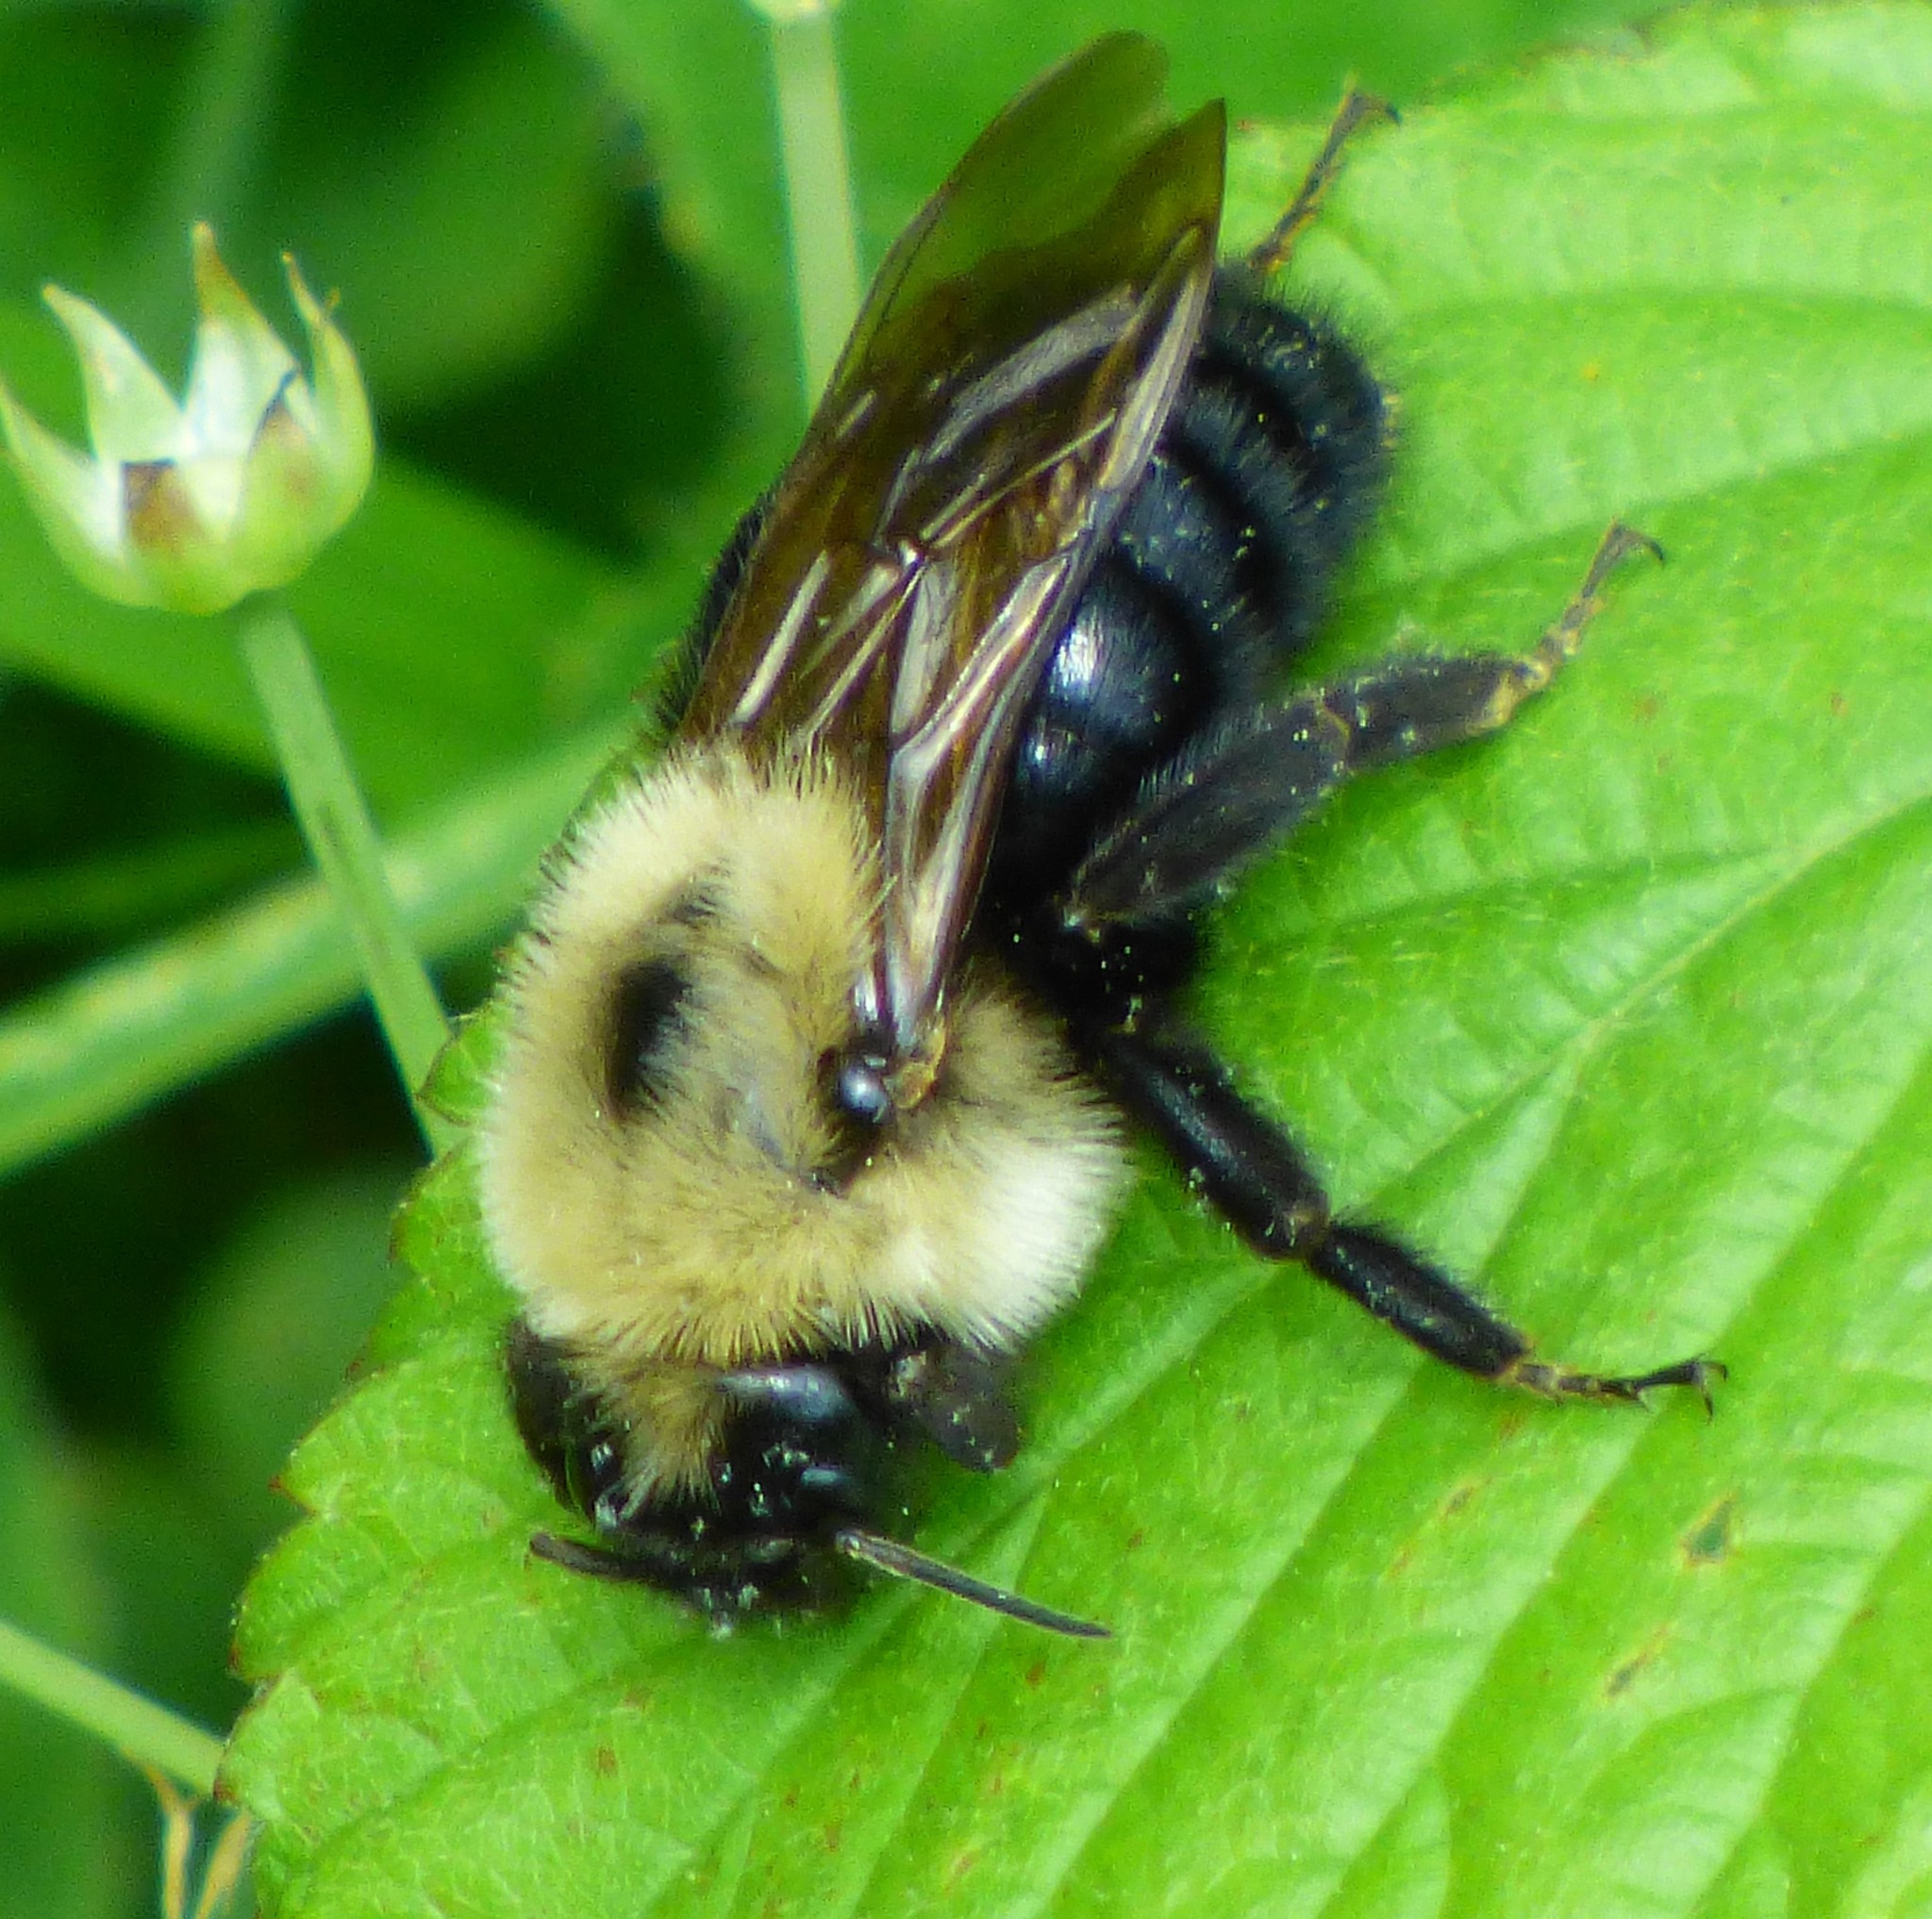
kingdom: Animalia
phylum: Arthropoda
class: Insecta
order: Hymenoptera
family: Apidae
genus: Bombus
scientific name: Bombus citrinus
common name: Lemon cuckoo bumble bee
